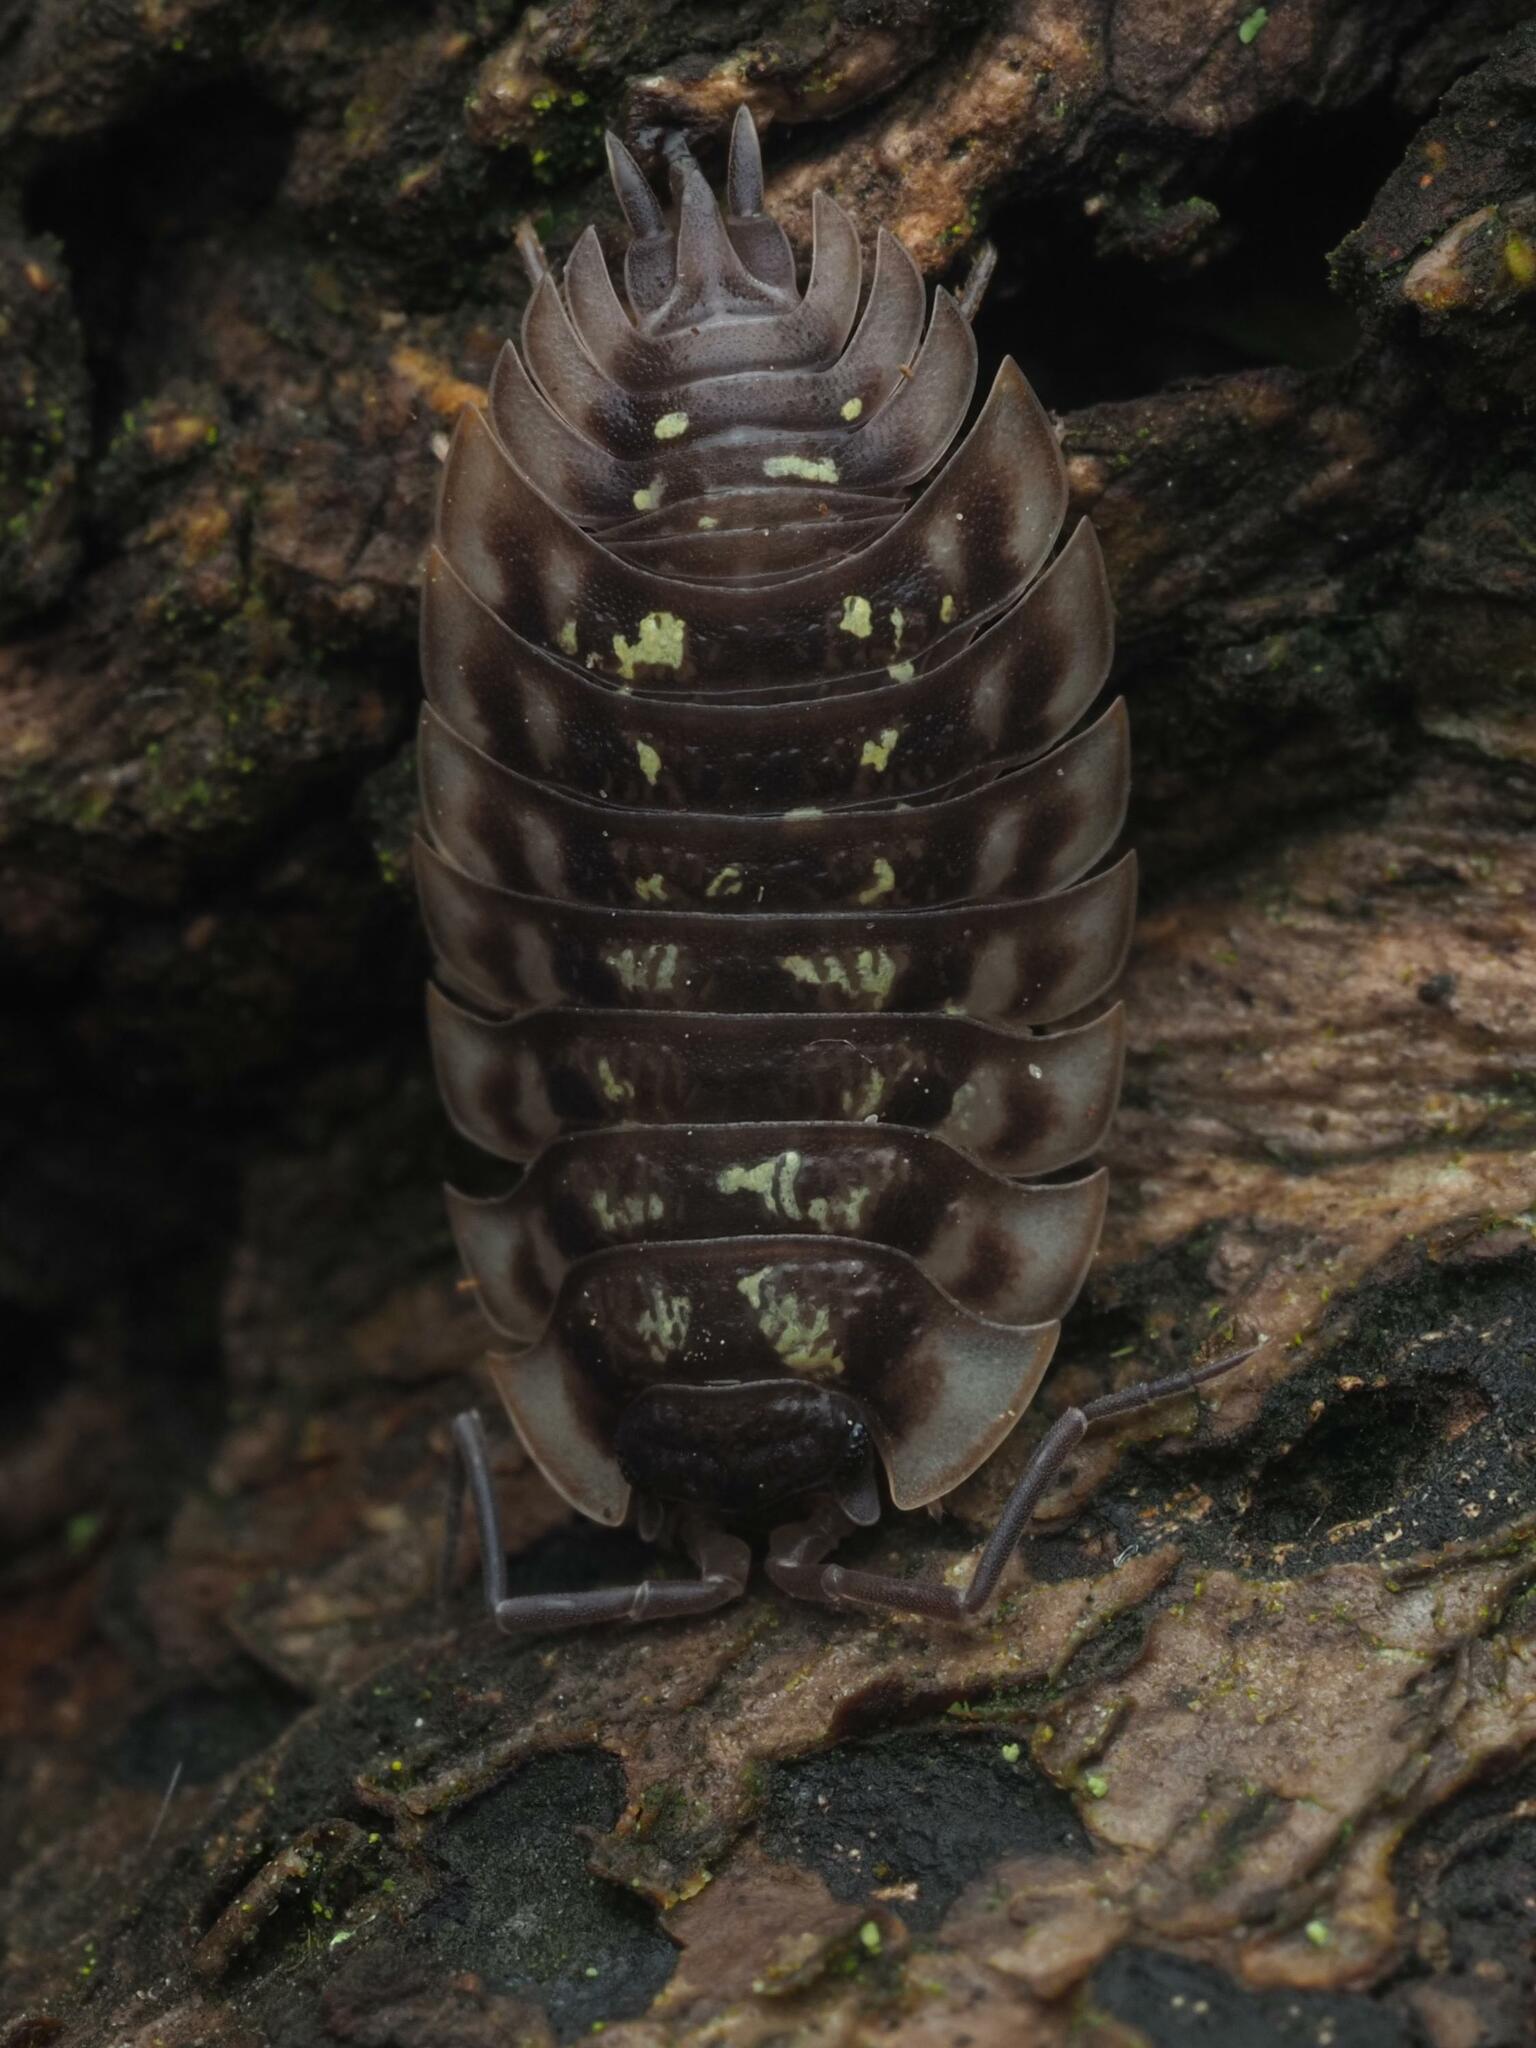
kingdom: Animalia
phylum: Arthropoda
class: Malacostraca
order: Isopoda
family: Oniscidae
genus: Oniscus
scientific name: Oniscus asellus
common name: Common shiny woodlouse
